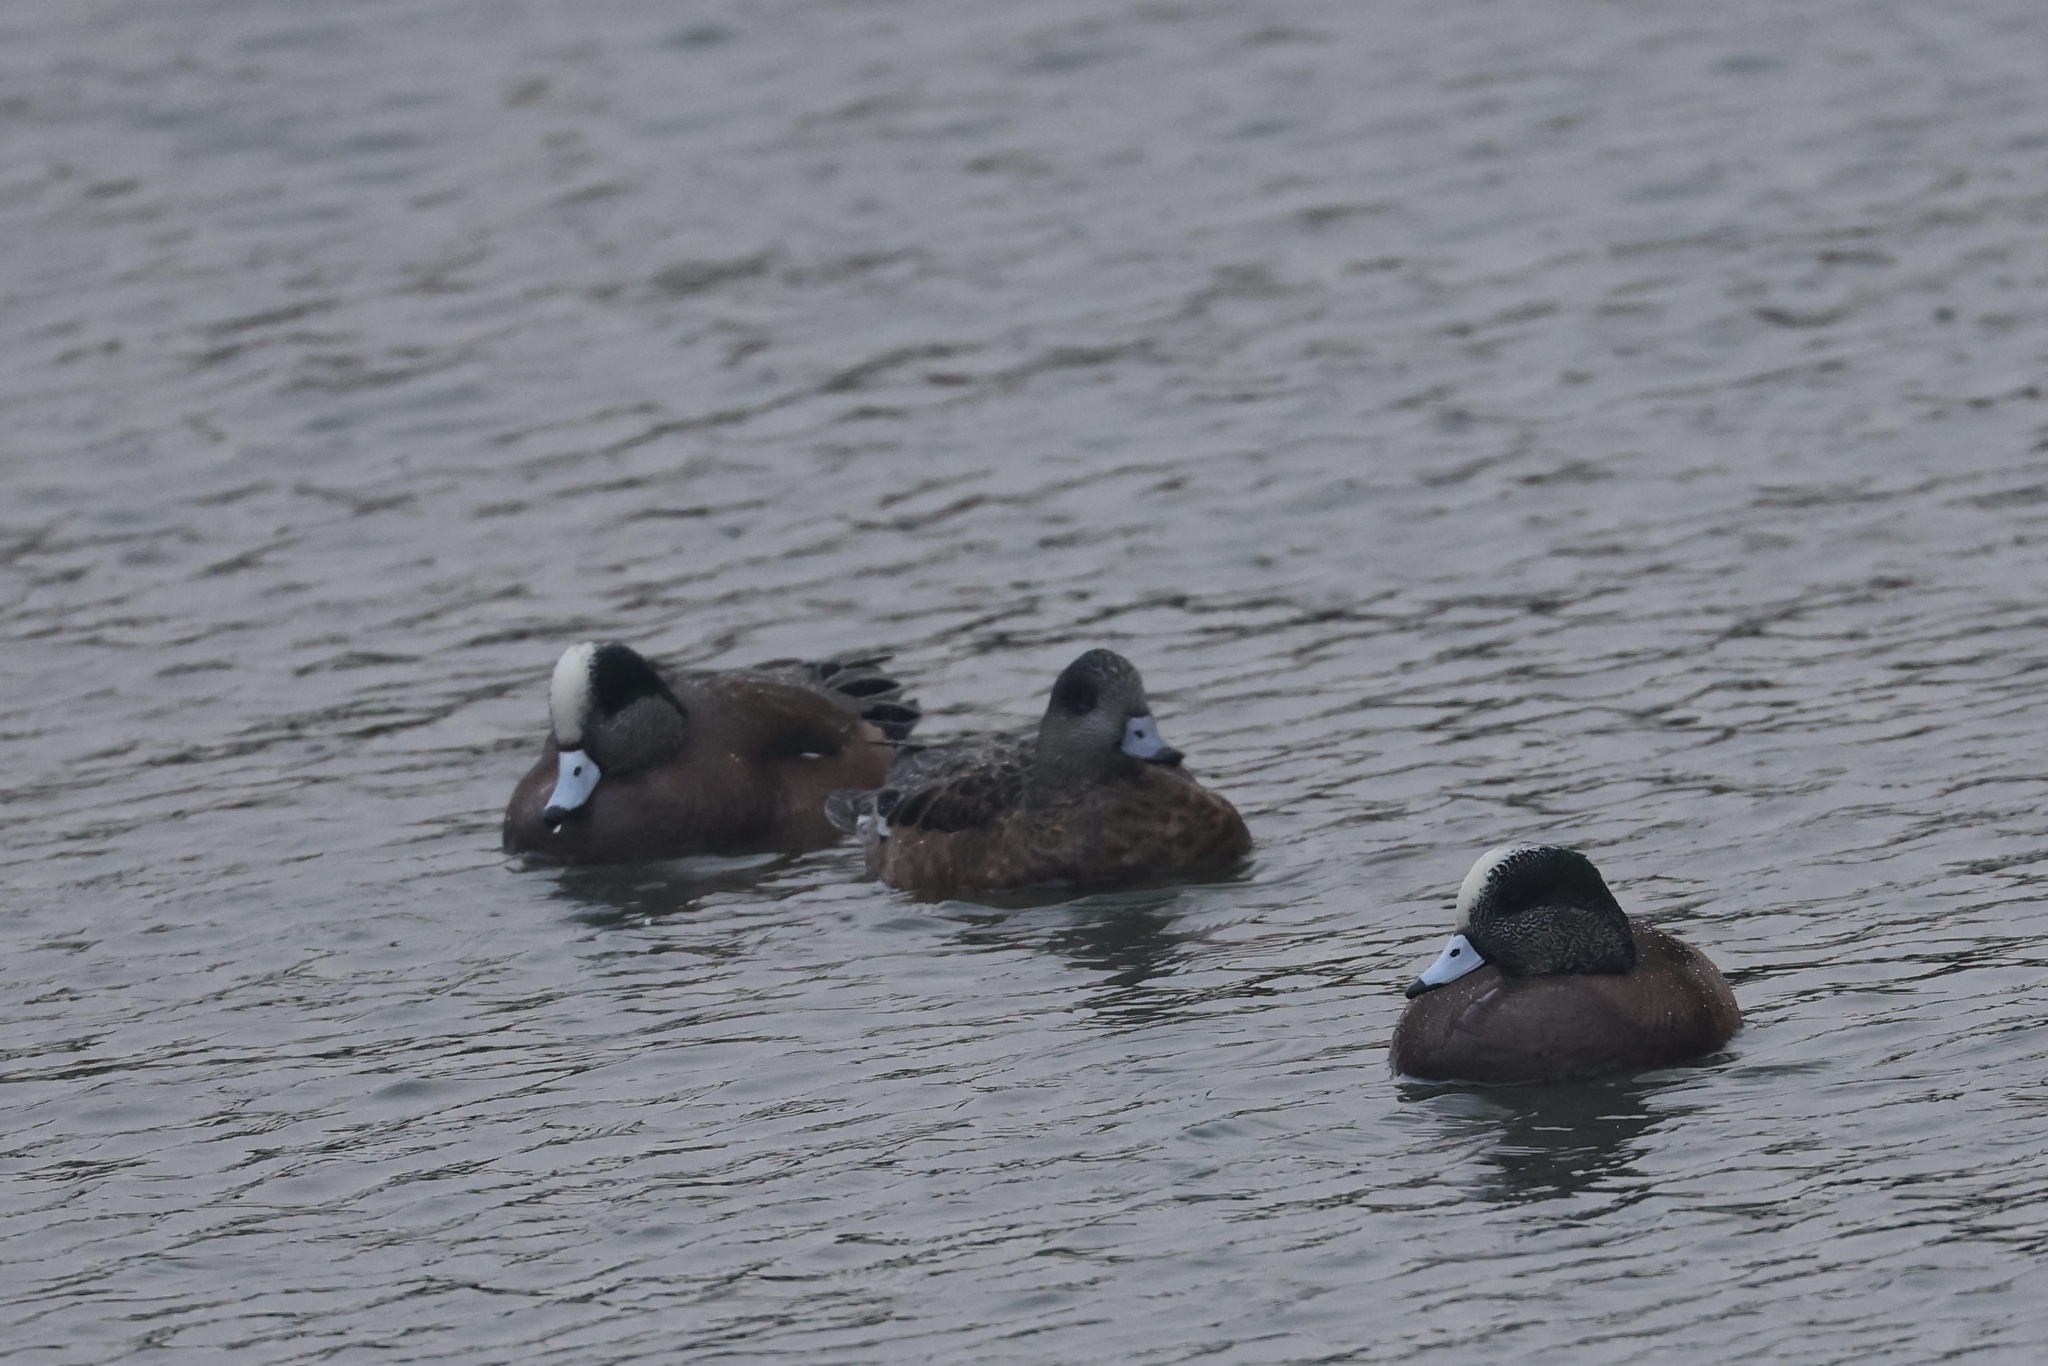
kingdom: Animalia
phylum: Chordata
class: Aves
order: Anseriformes
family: Anatidae
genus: Mareca
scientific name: Mareca americana
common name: American wigeon
